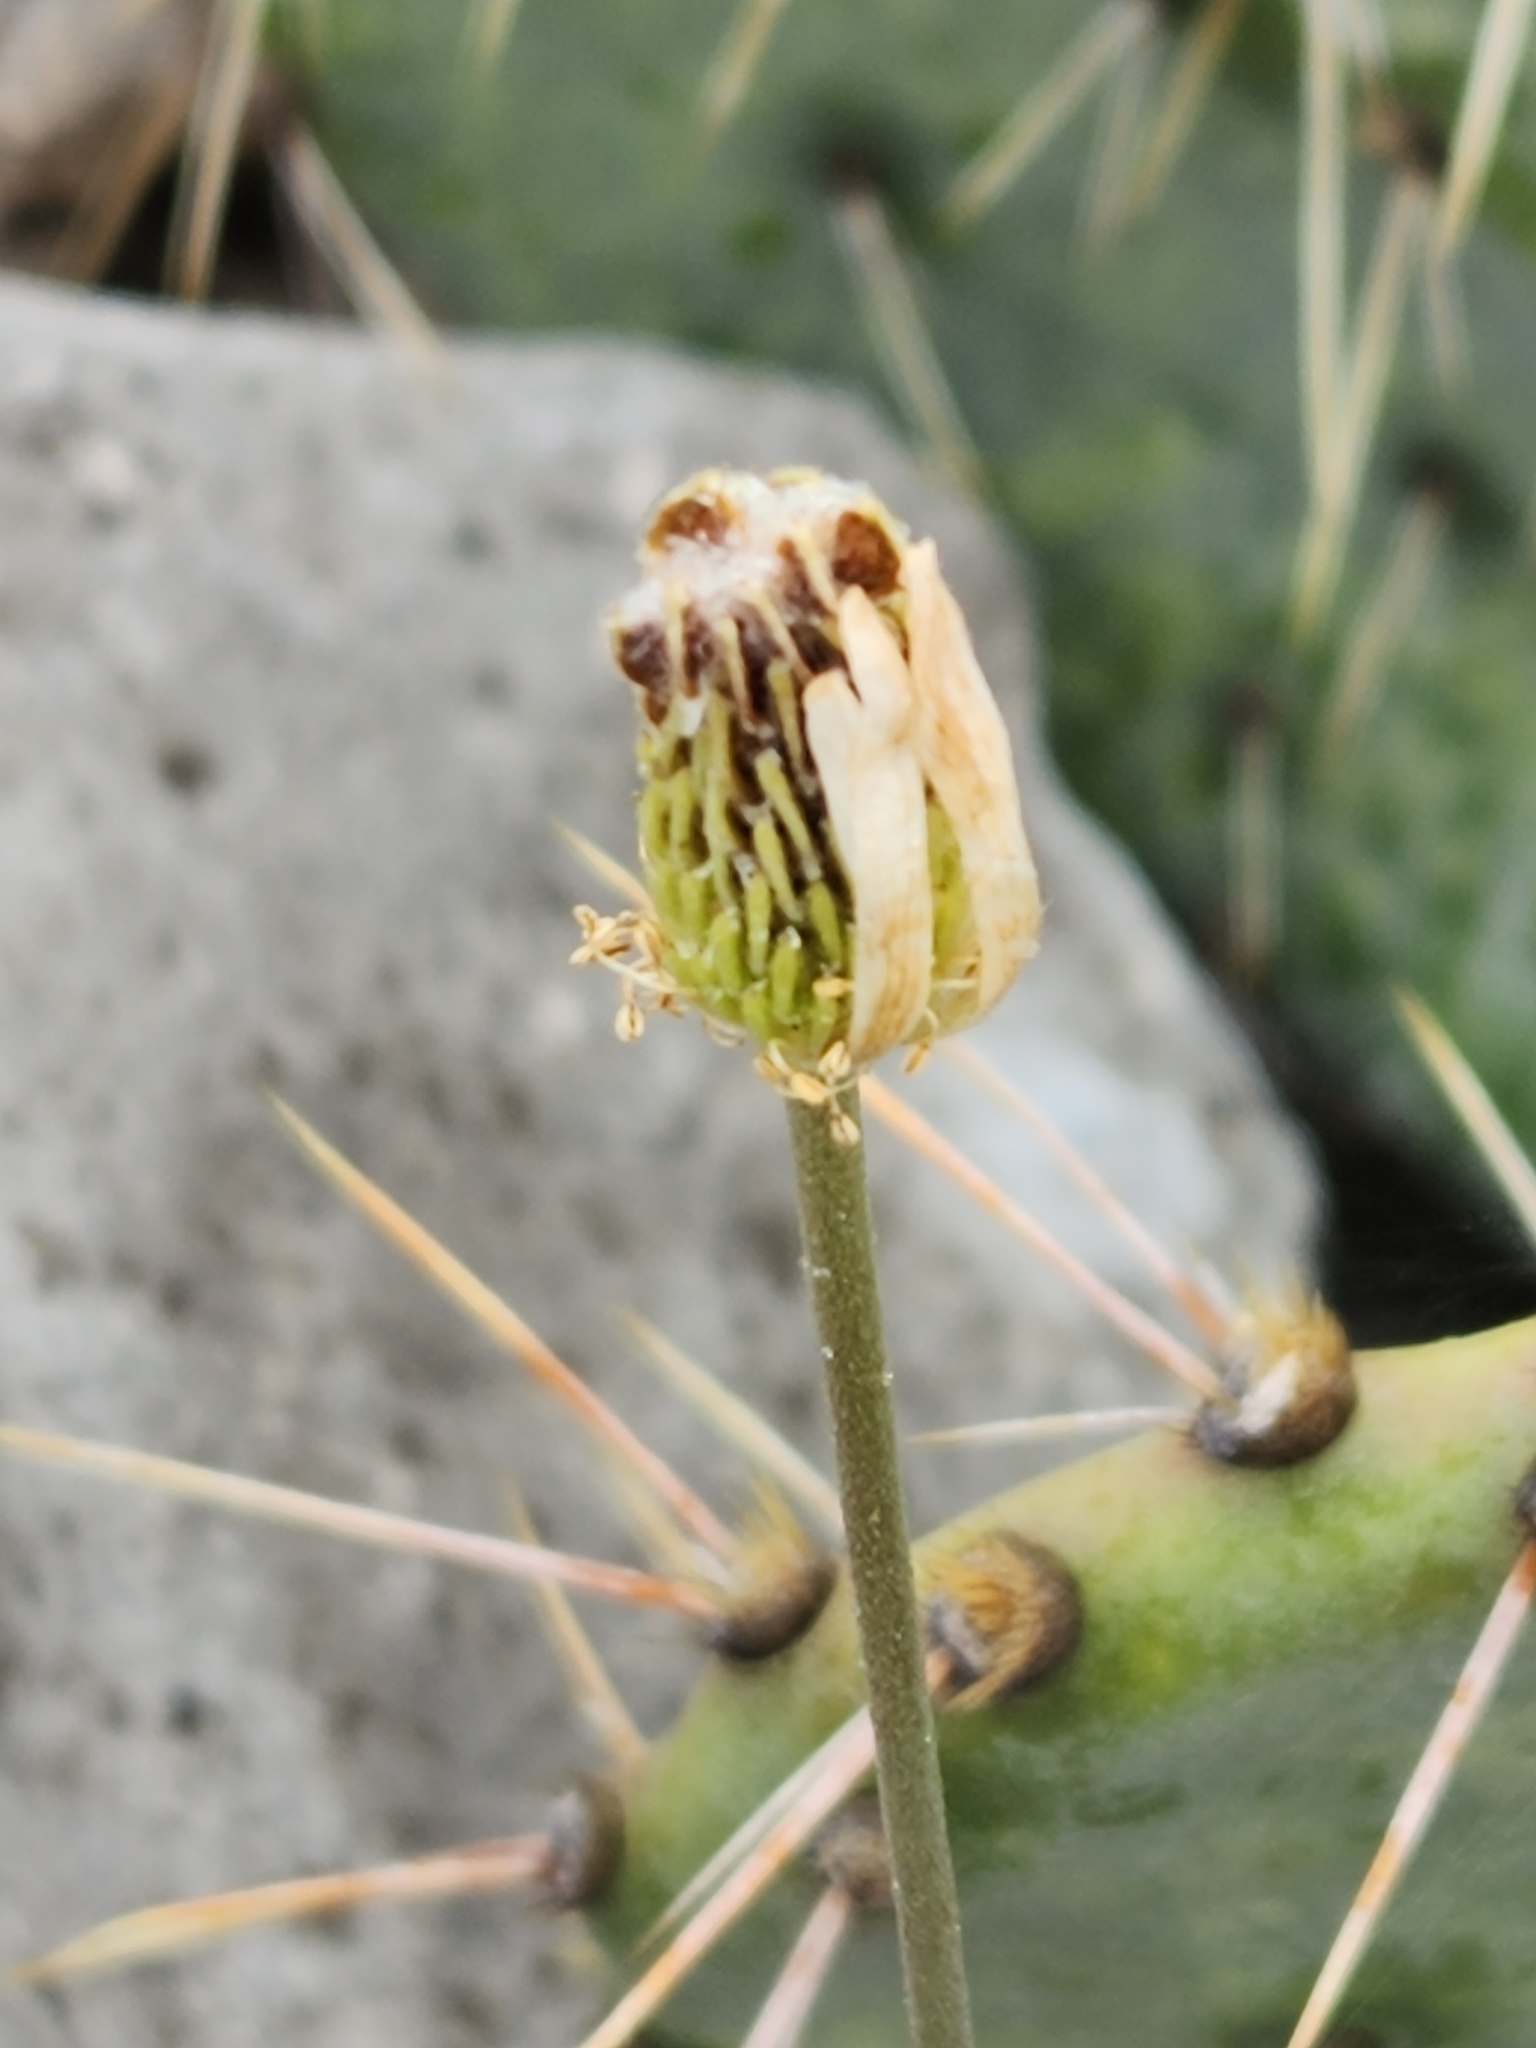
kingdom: Plantae
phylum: Tracheophyta
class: Magnoliopsida
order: Ranunculales
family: Ranunculaceae
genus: Anemone
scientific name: Anemone edwardsiana
